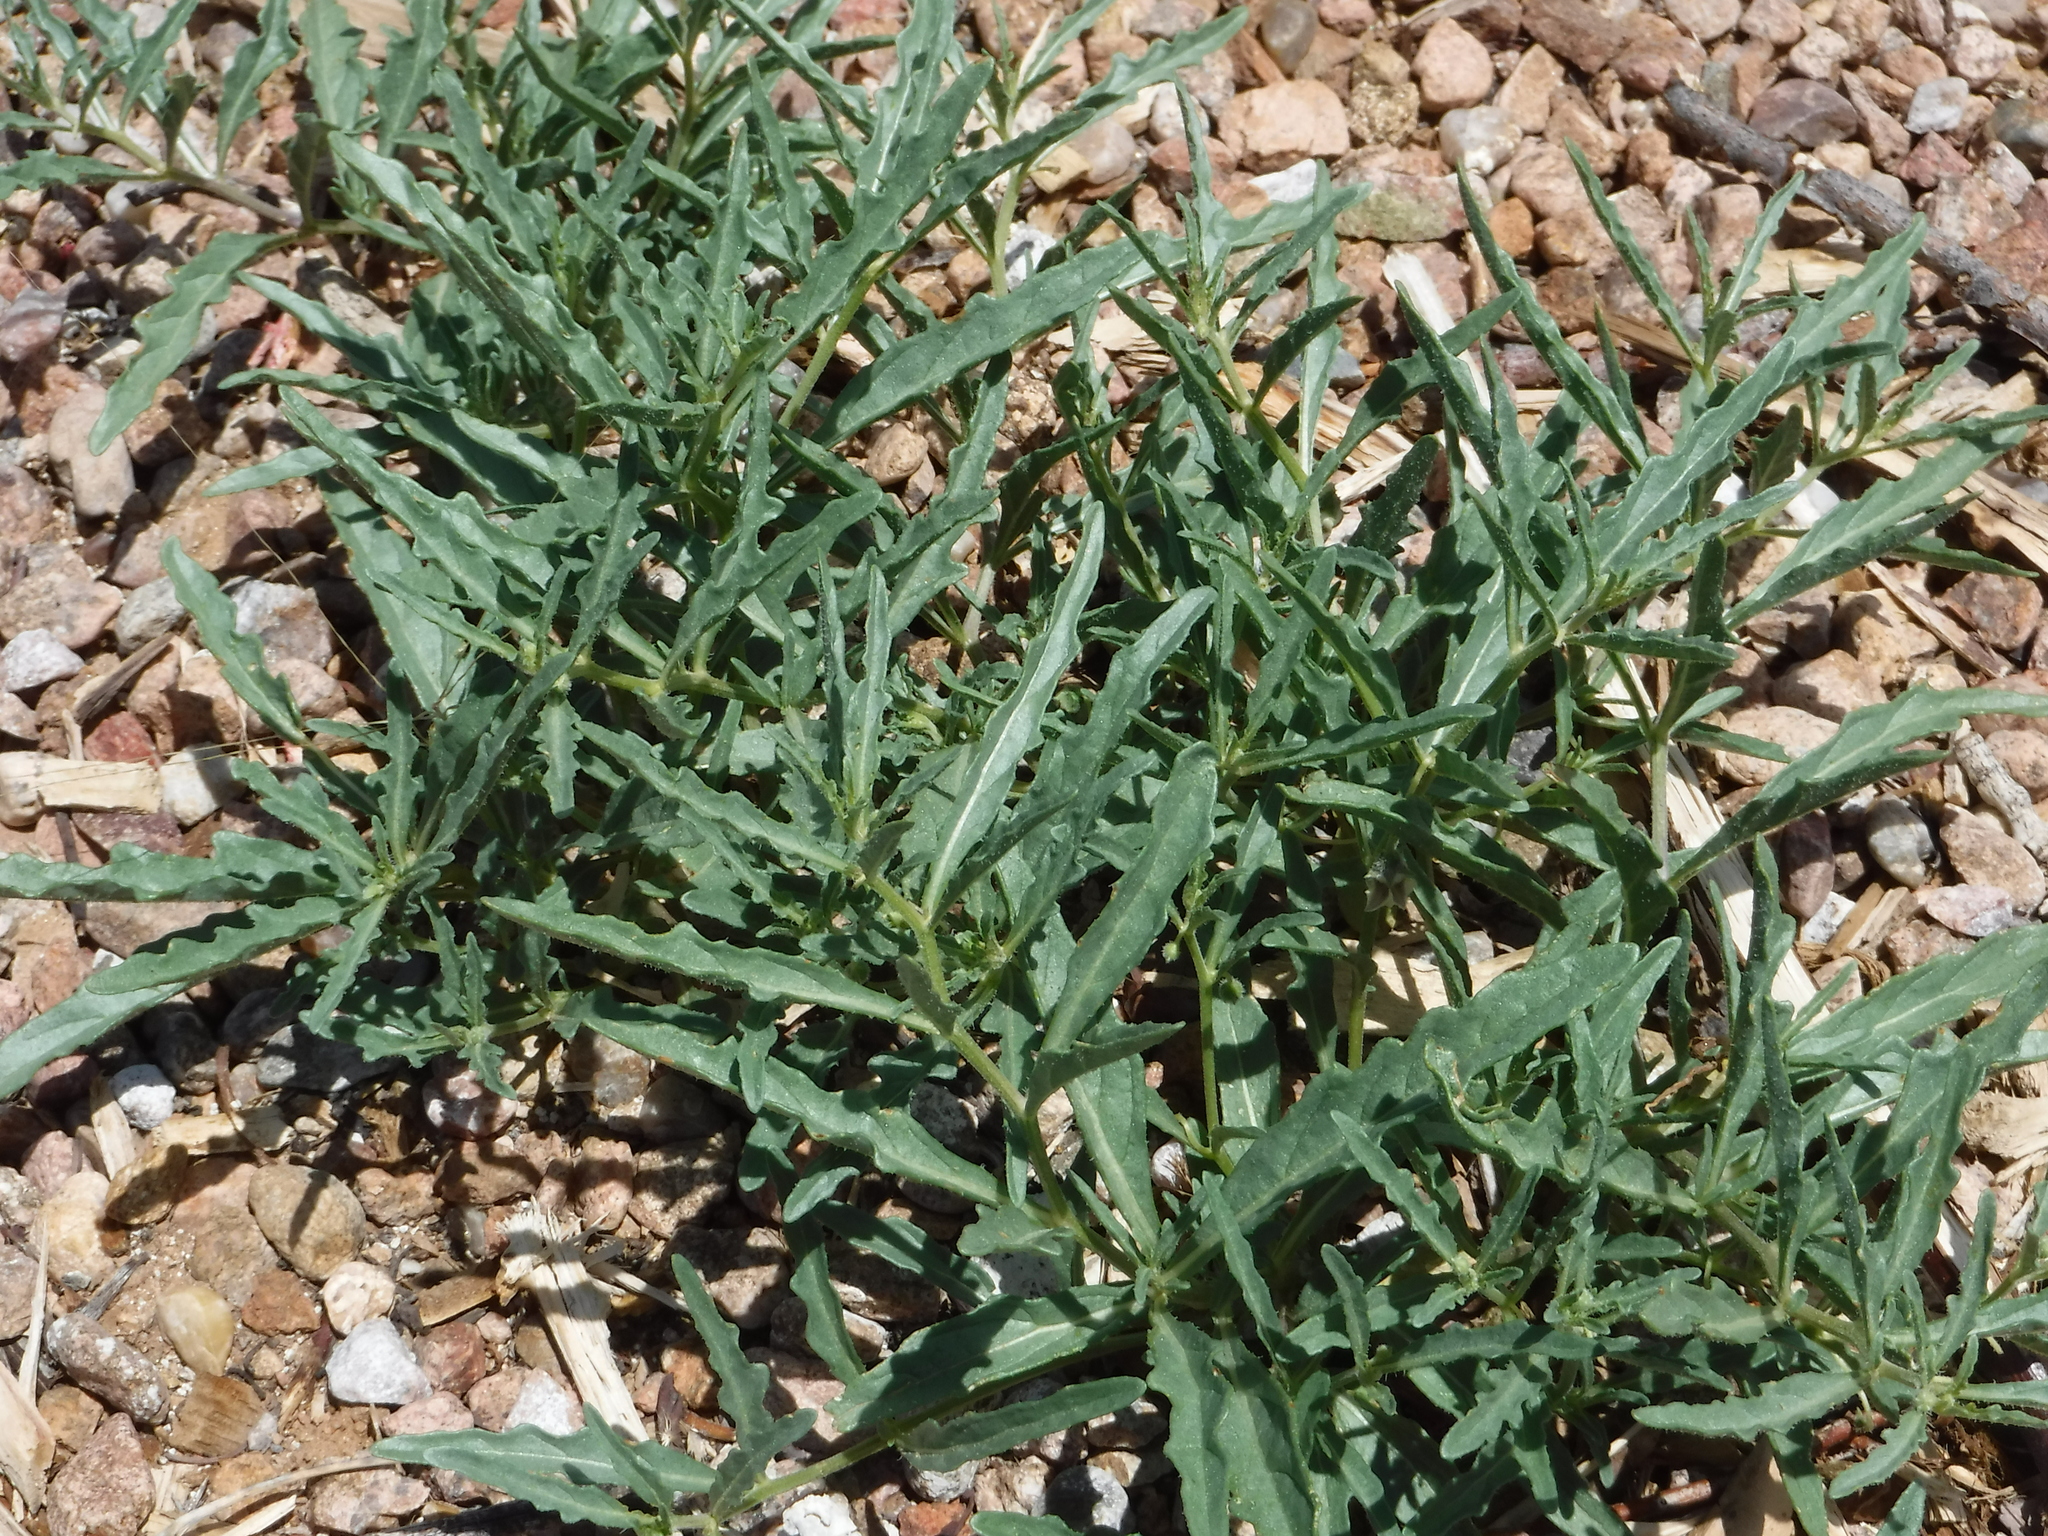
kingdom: Plantae
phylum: Tracheophyta
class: Magnoliopsida
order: Solanales
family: Solanaceae
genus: Chamaesaracha
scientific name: Chamaesaracha coronopus
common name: Smooth chamaesaracha
